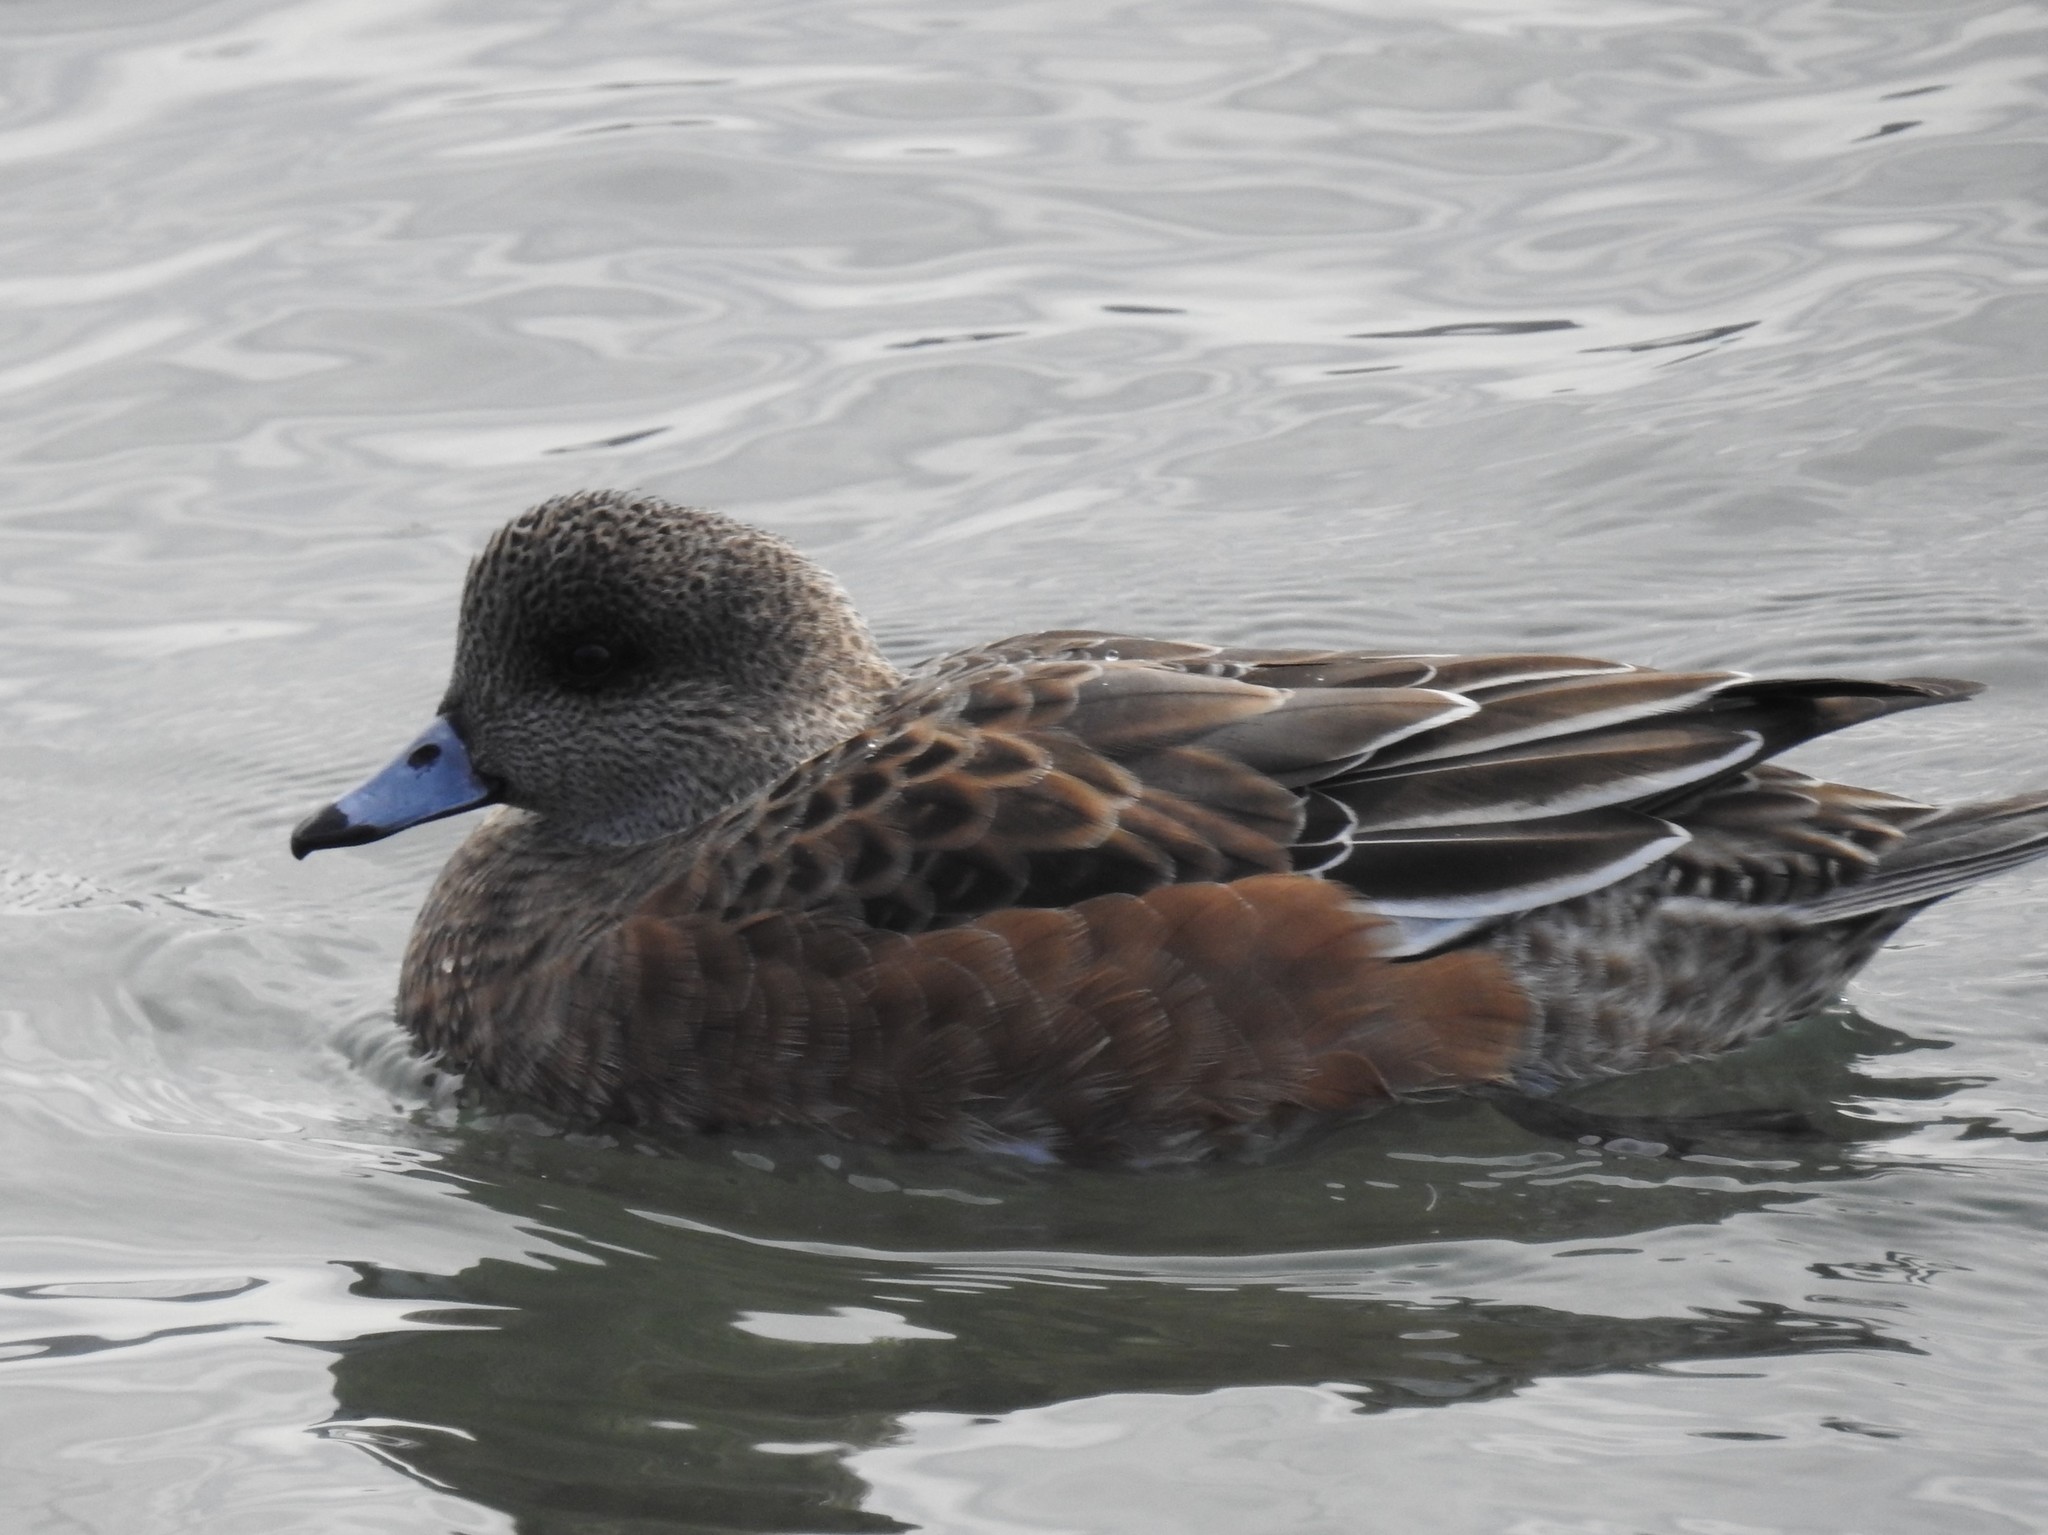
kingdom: Animalia
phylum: Chordata
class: Aves
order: Anseriformes
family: Anatidae
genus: Mareca
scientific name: Mareca americana
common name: American wigeon
